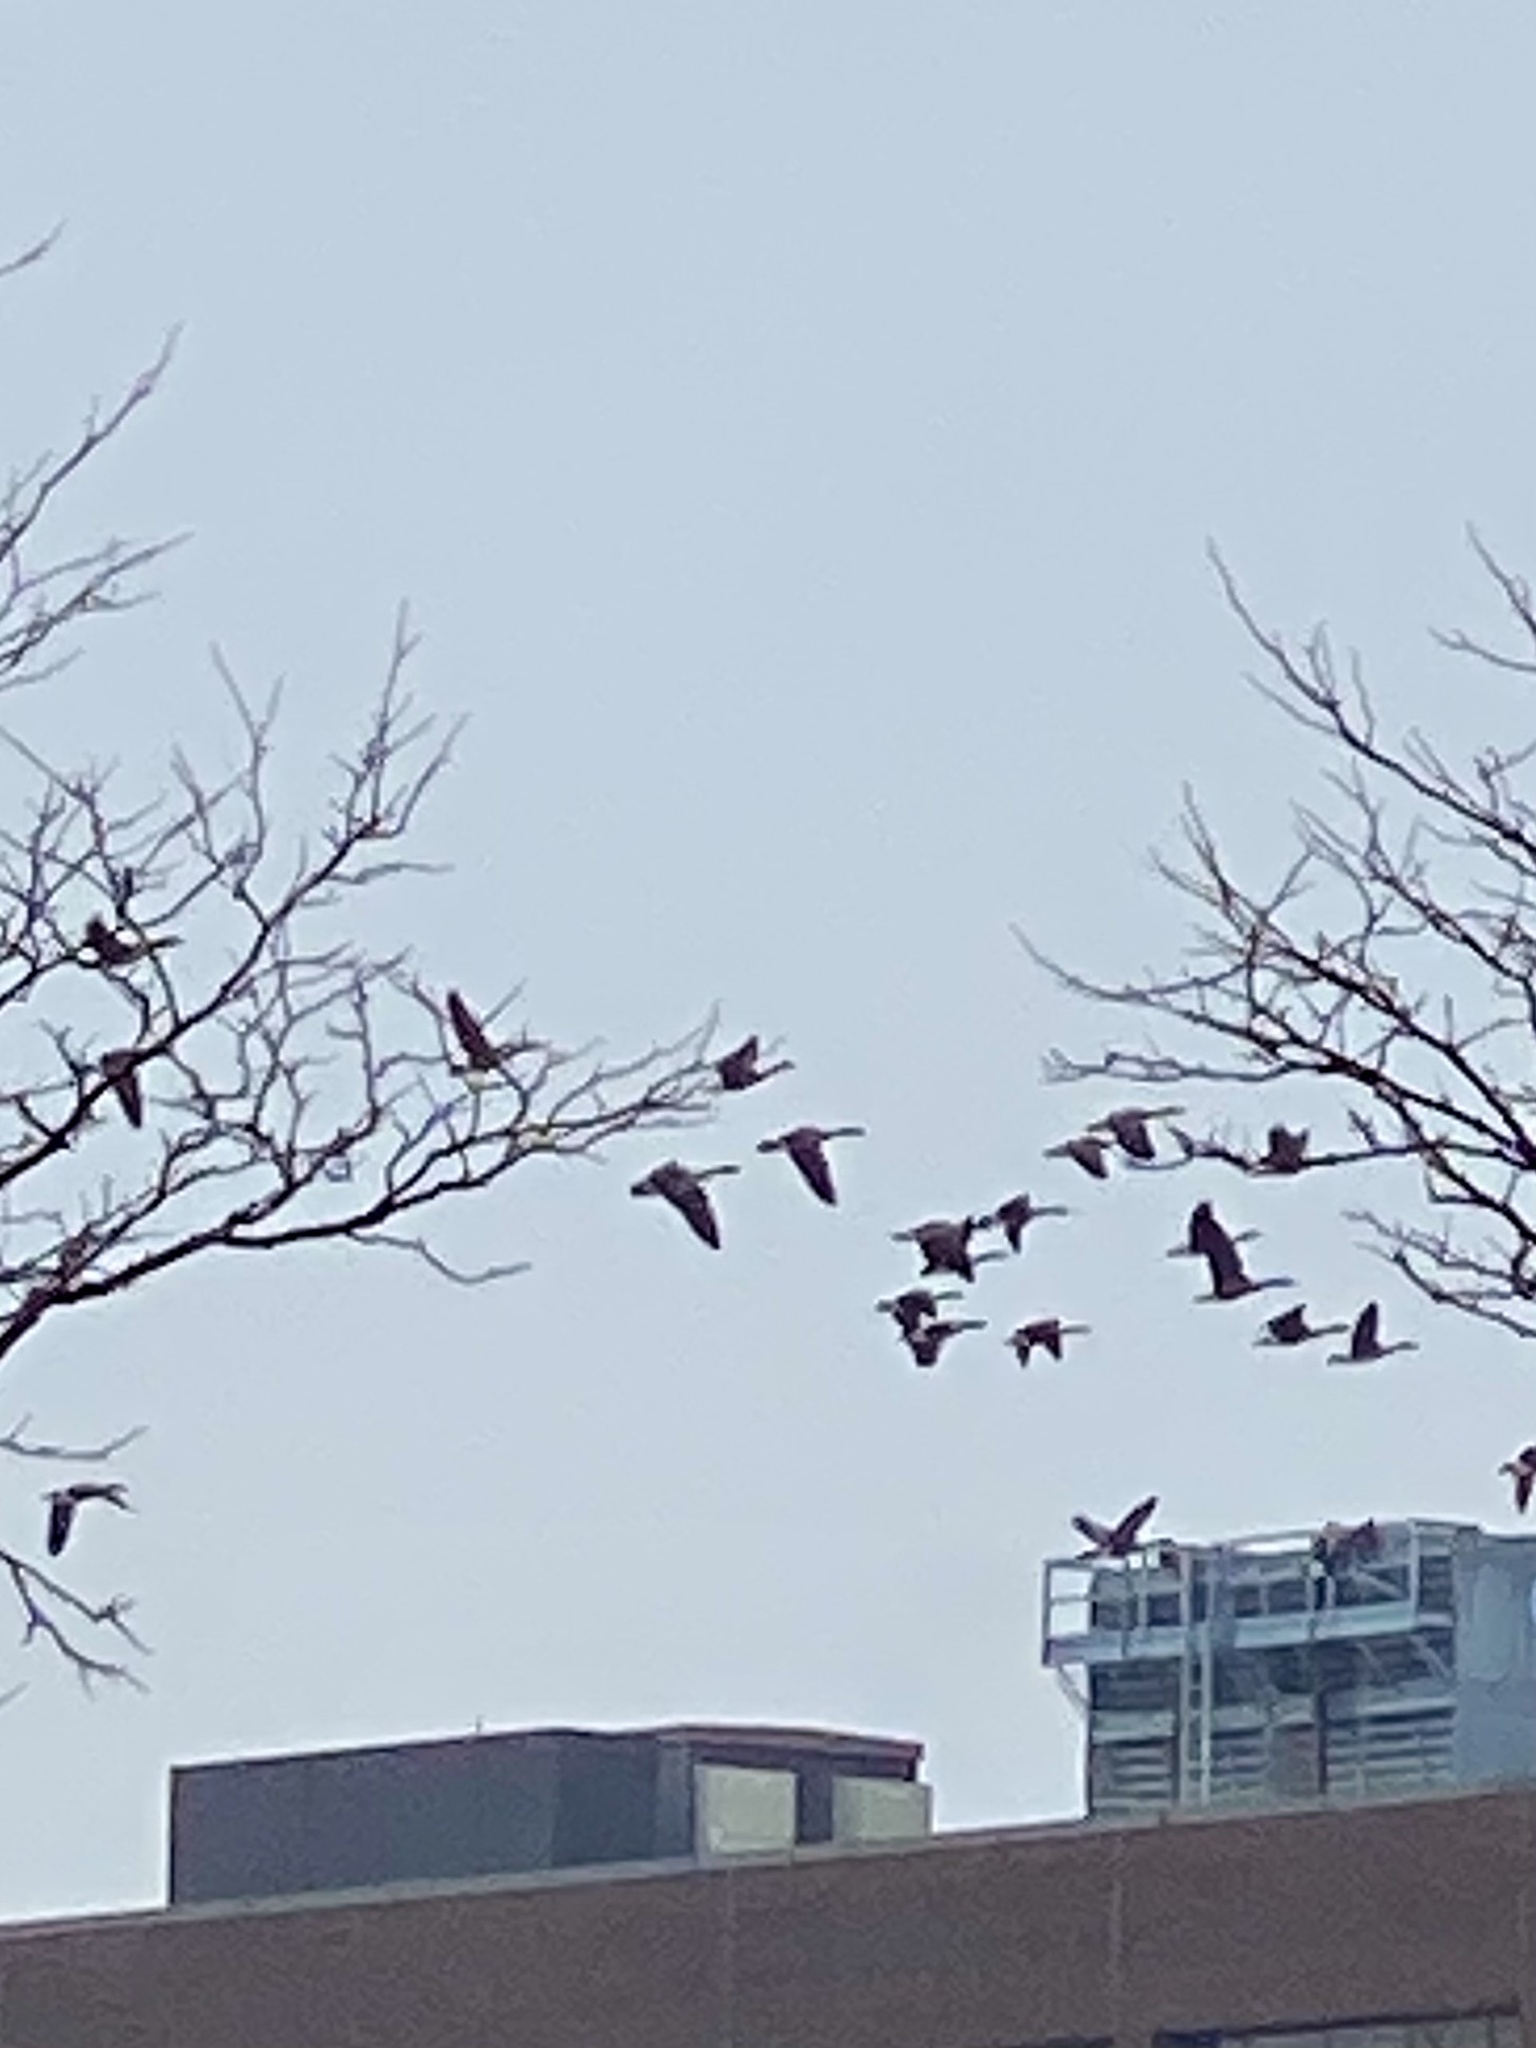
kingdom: Animalia
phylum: Chordata
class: Aves
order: Anseriformes
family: Anatidae
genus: Branta
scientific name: Branta canadensis
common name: Canada goose
